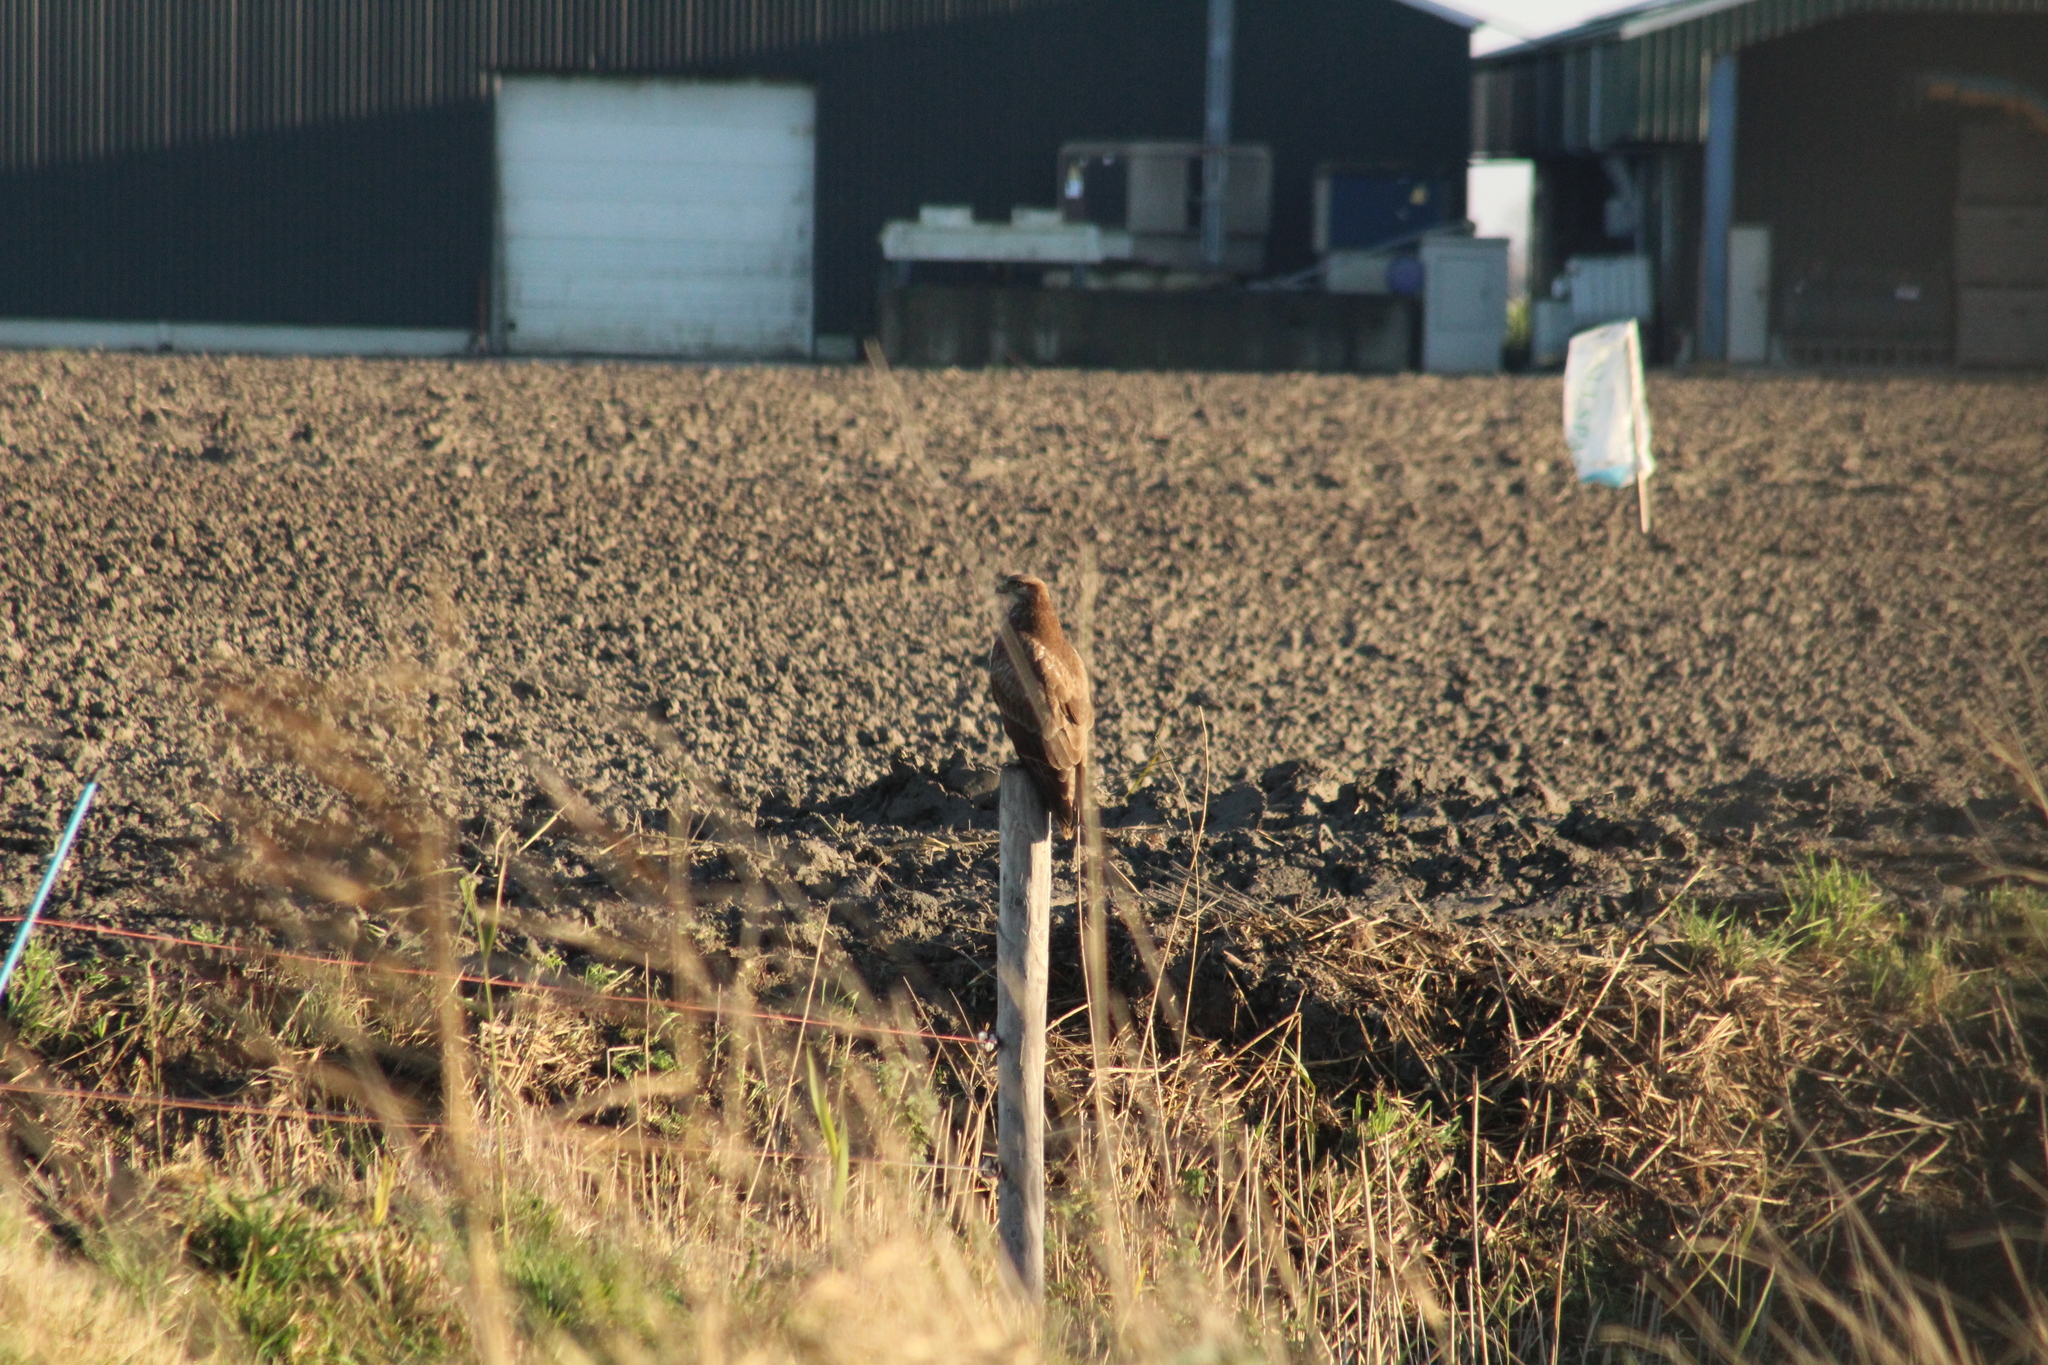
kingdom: Animalia
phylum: Chordata
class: Aves
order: Accipitriformes
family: Accipitridae
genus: Buteo
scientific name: Buteo buteo
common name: Common buzzard
